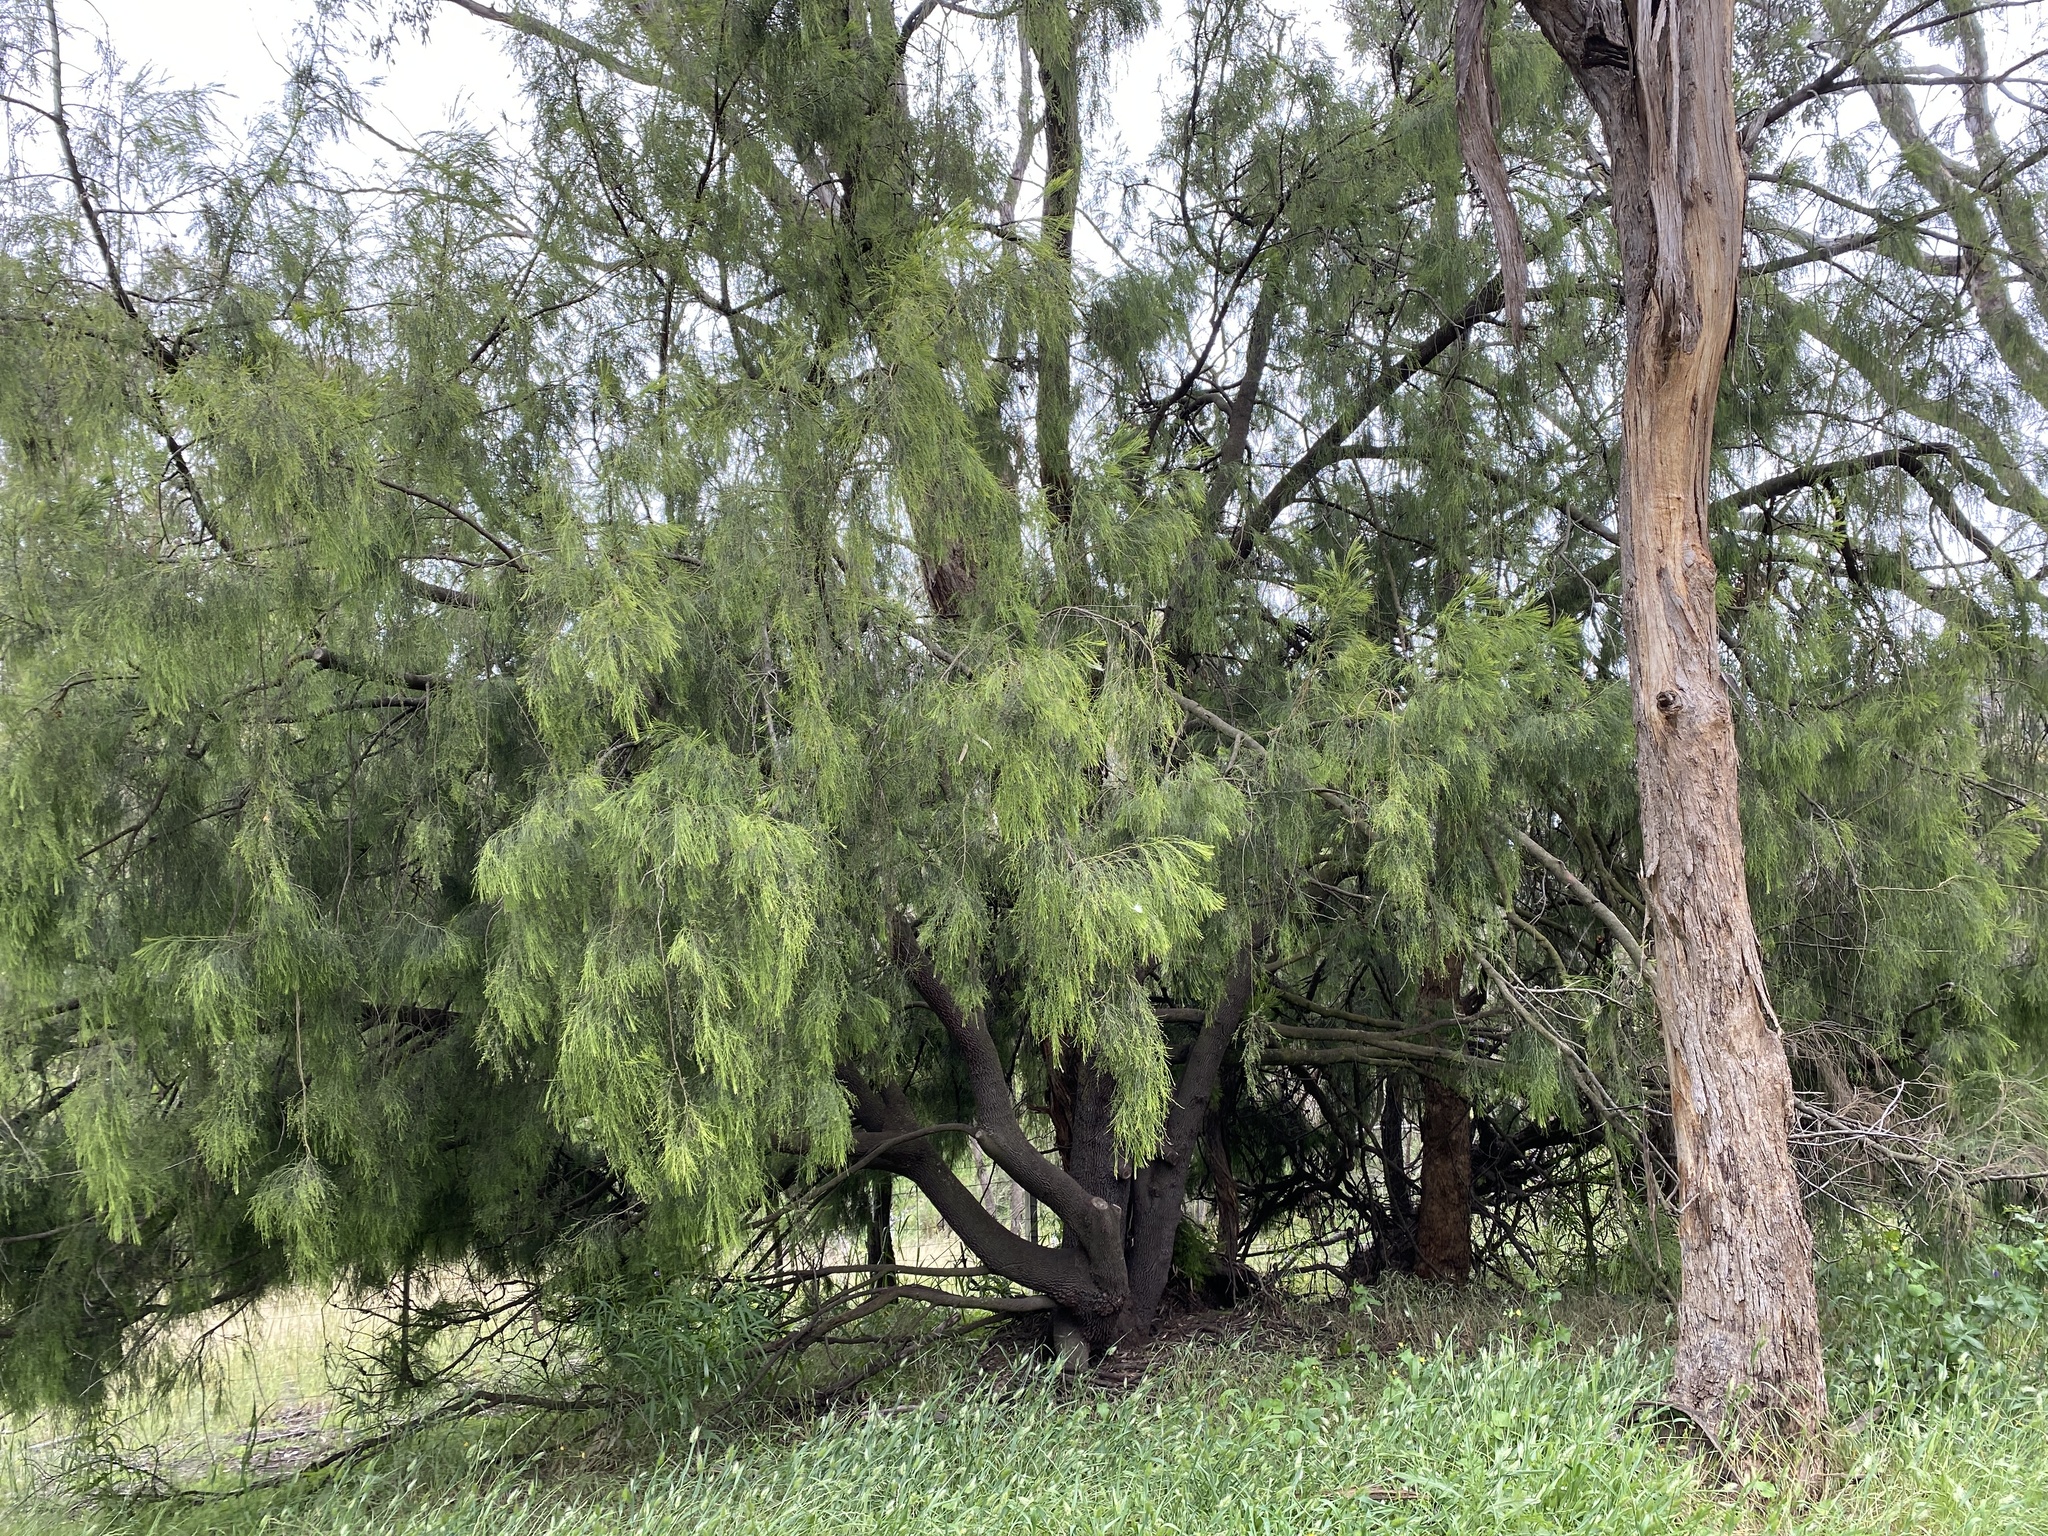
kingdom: Plantae
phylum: Tracheophyta
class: Magnoliopsida
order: Santalales
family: Santalaceae
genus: Exocarpos
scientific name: Exocarpos cupressiformis
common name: Cherry ballart
